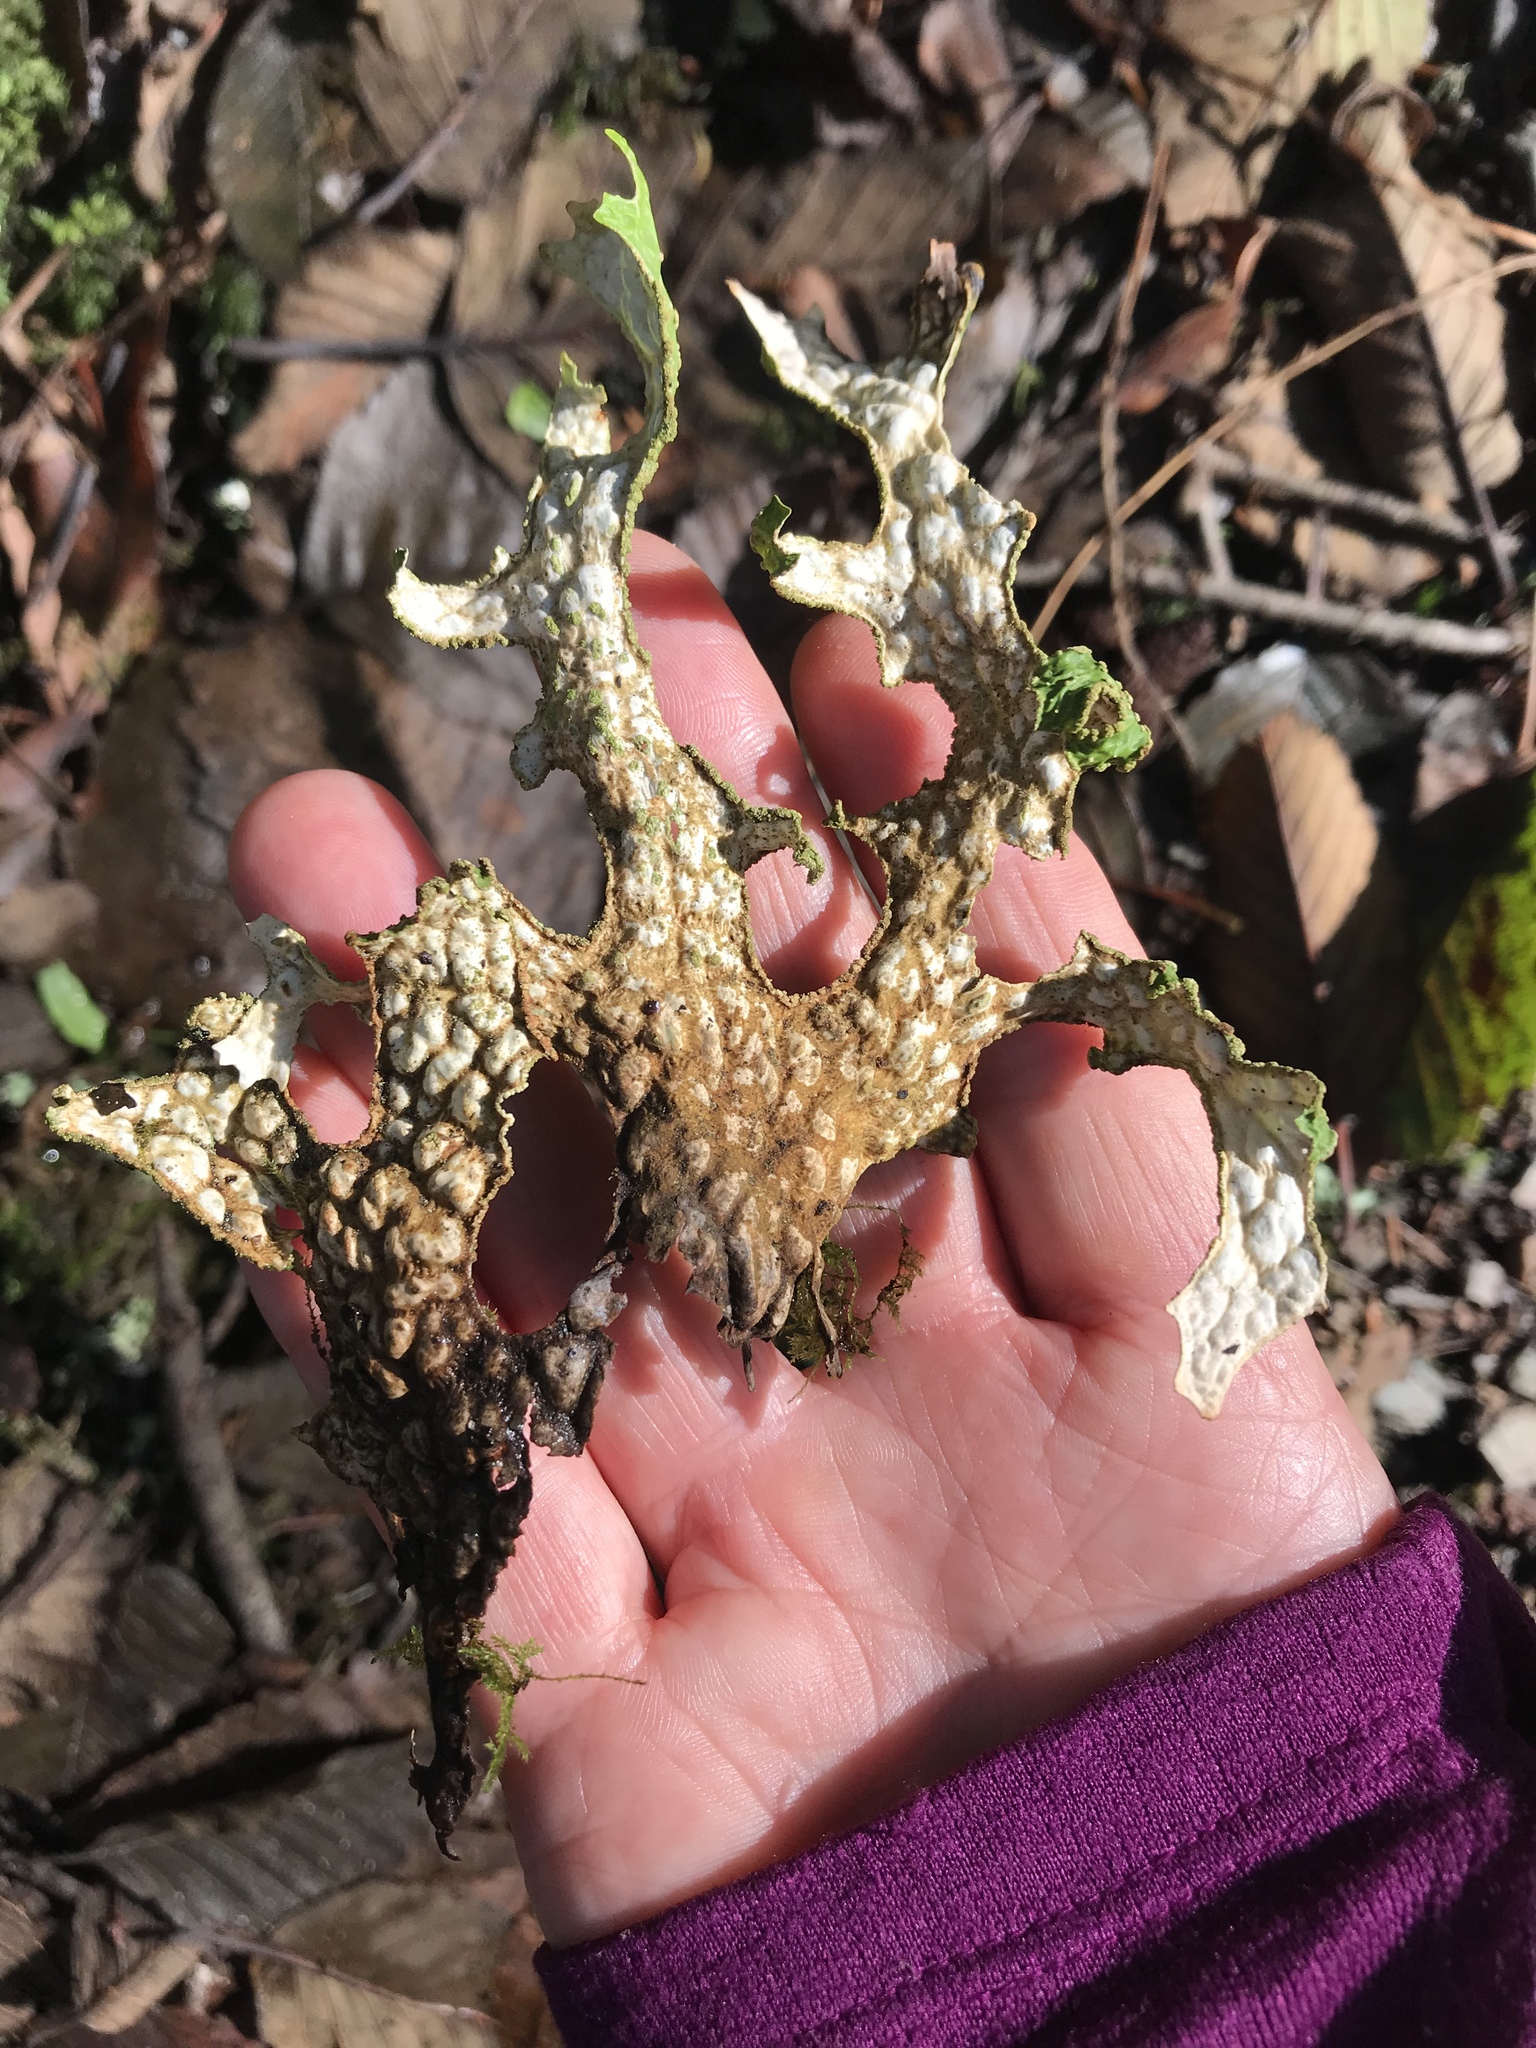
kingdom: Fungi
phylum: Ascomycota
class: Lecanoromycetes
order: Peltigerales
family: Lobariaceae
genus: Lobaria
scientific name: Lobaria pulmonaria
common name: Lungwort
